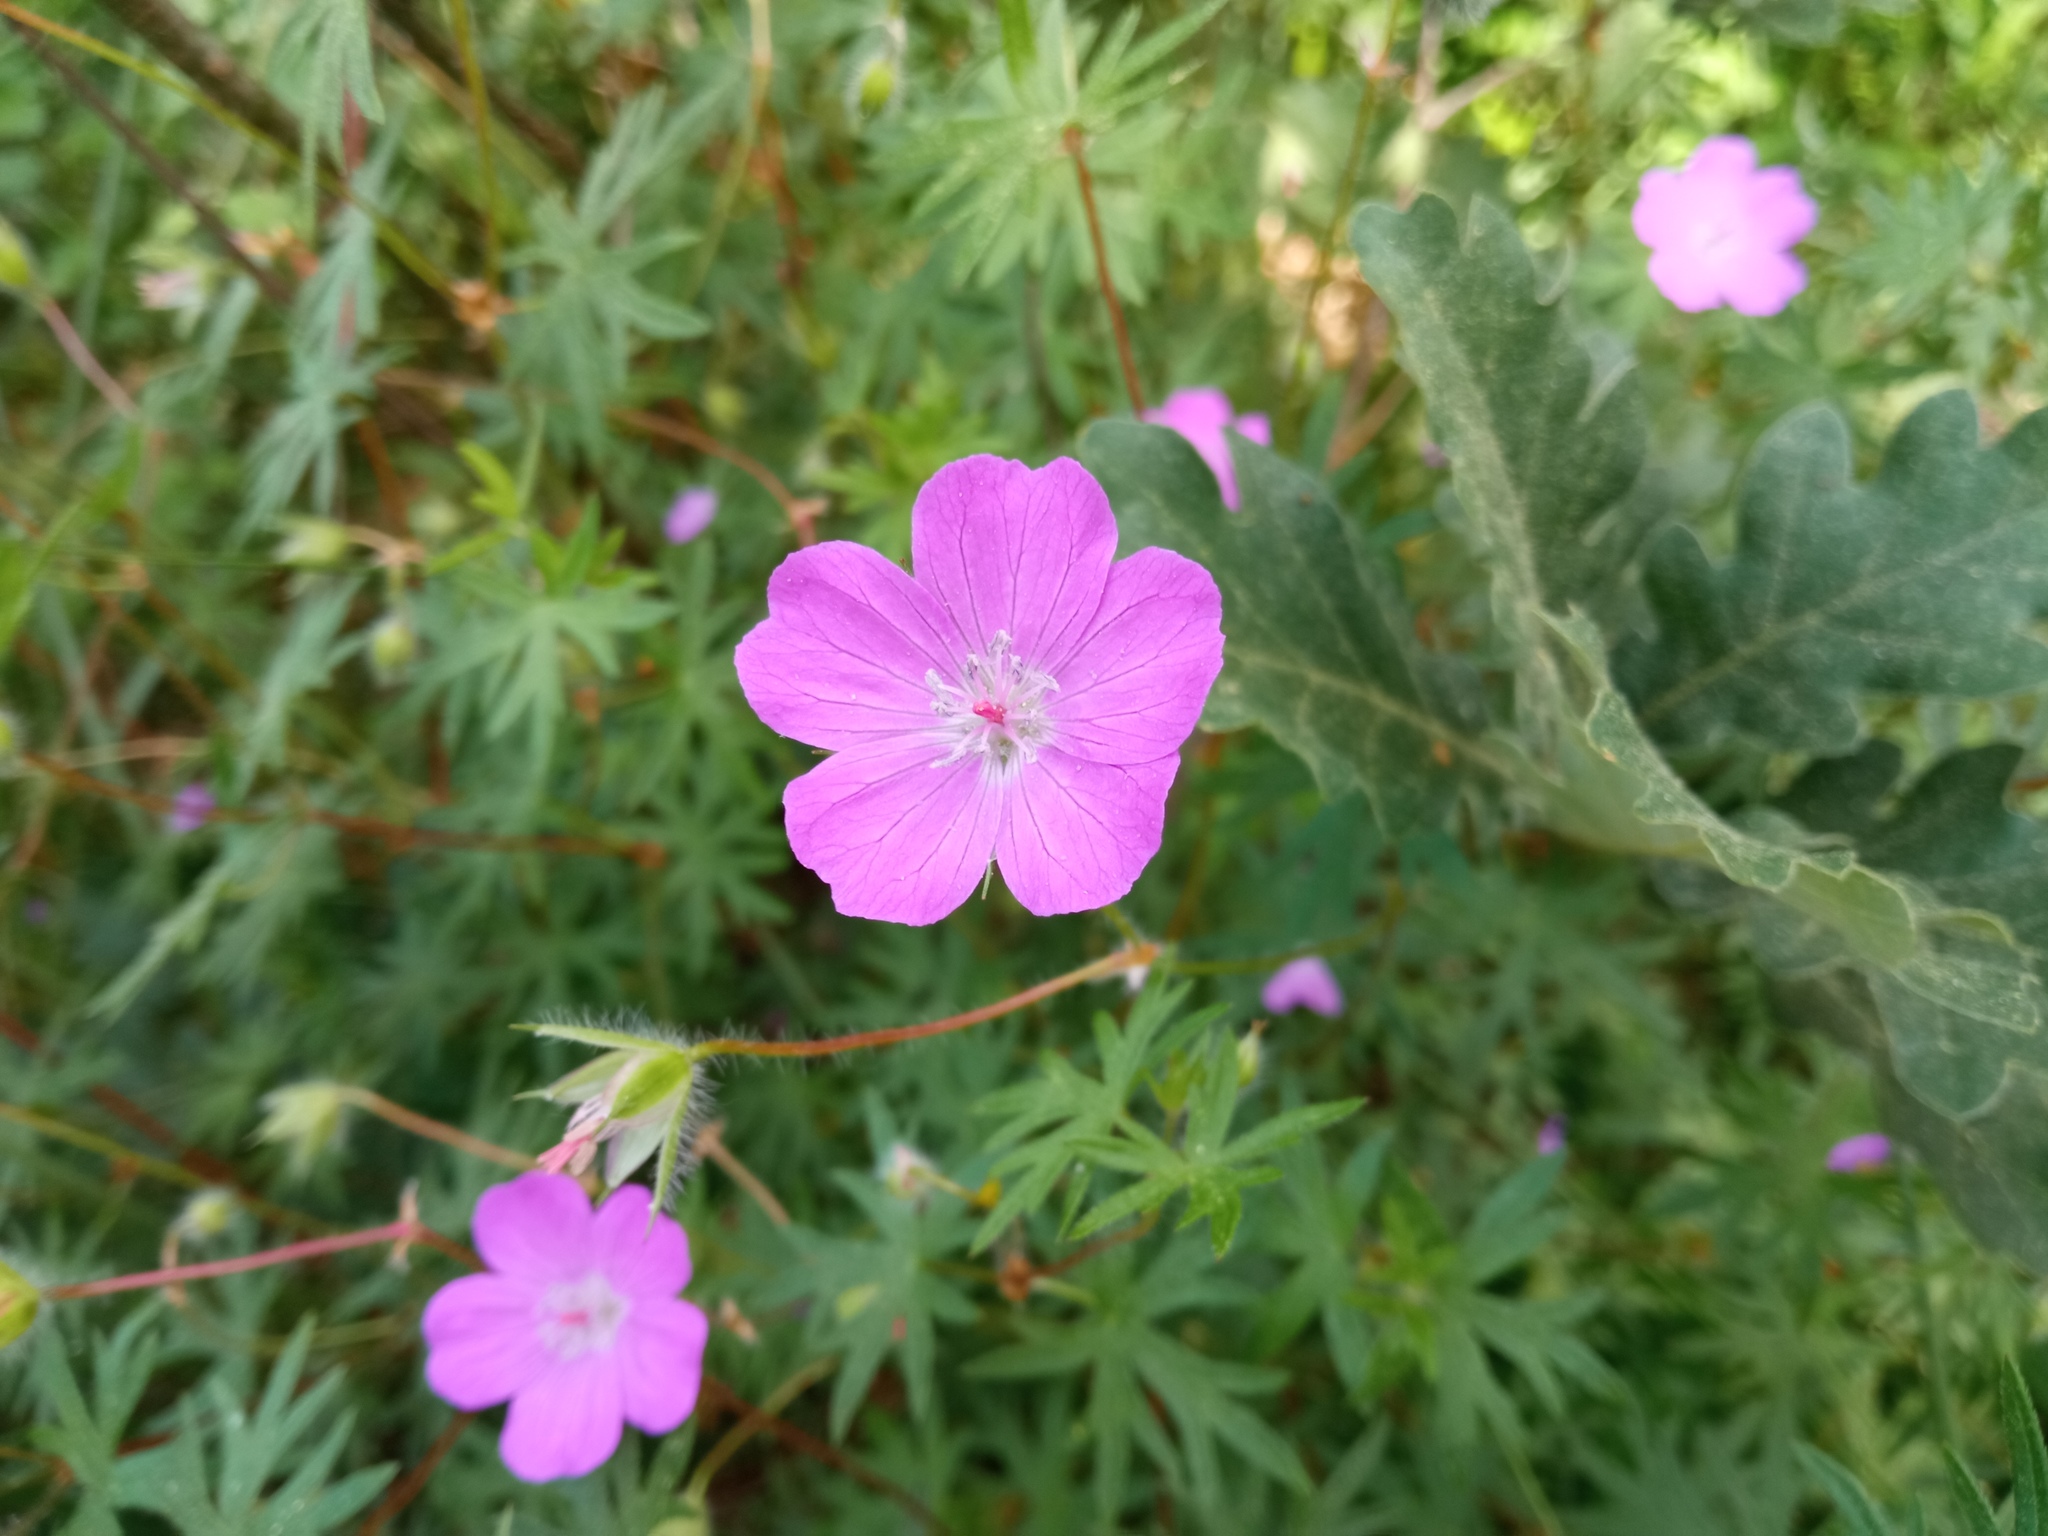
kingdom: Plantae
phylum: Tracheophyta
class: Magnoliopsida
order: Geraniales
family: Geraniaceae
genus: Geranium
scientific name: Geranium sanguineum
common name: Bloody crane's-bill
